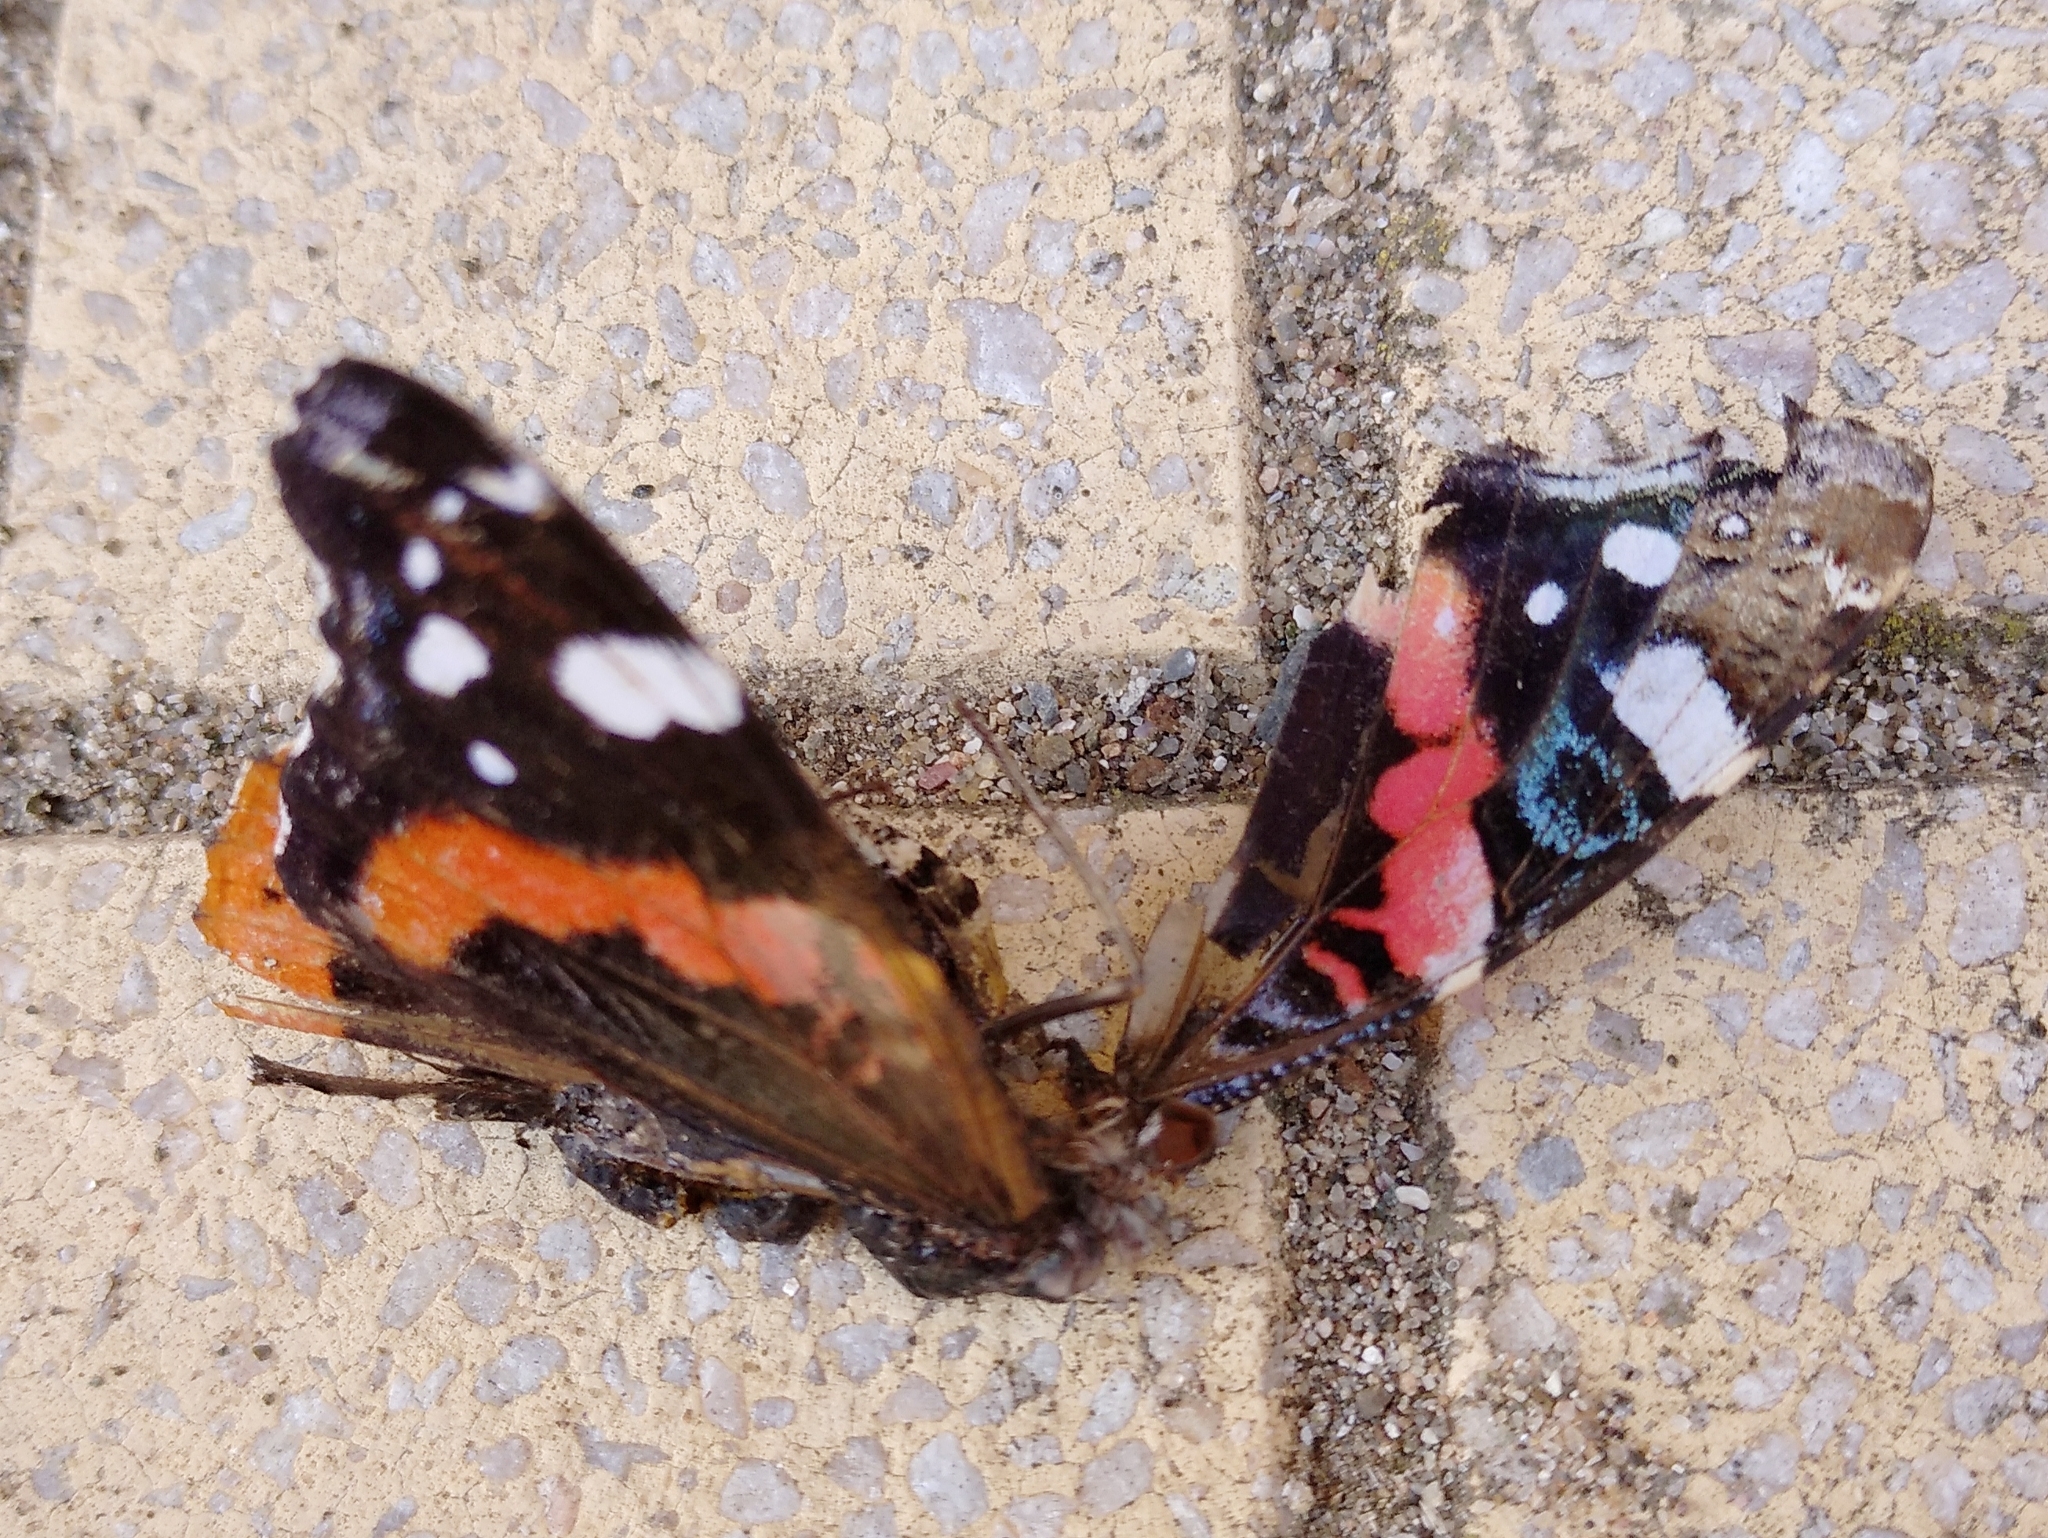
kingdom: Animalia
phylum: Arthropoda
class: Insecta
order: Lepidoptera
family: Nymphalidae
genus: Vanessa
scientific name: Vanessa atalanta
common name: Red admiral
